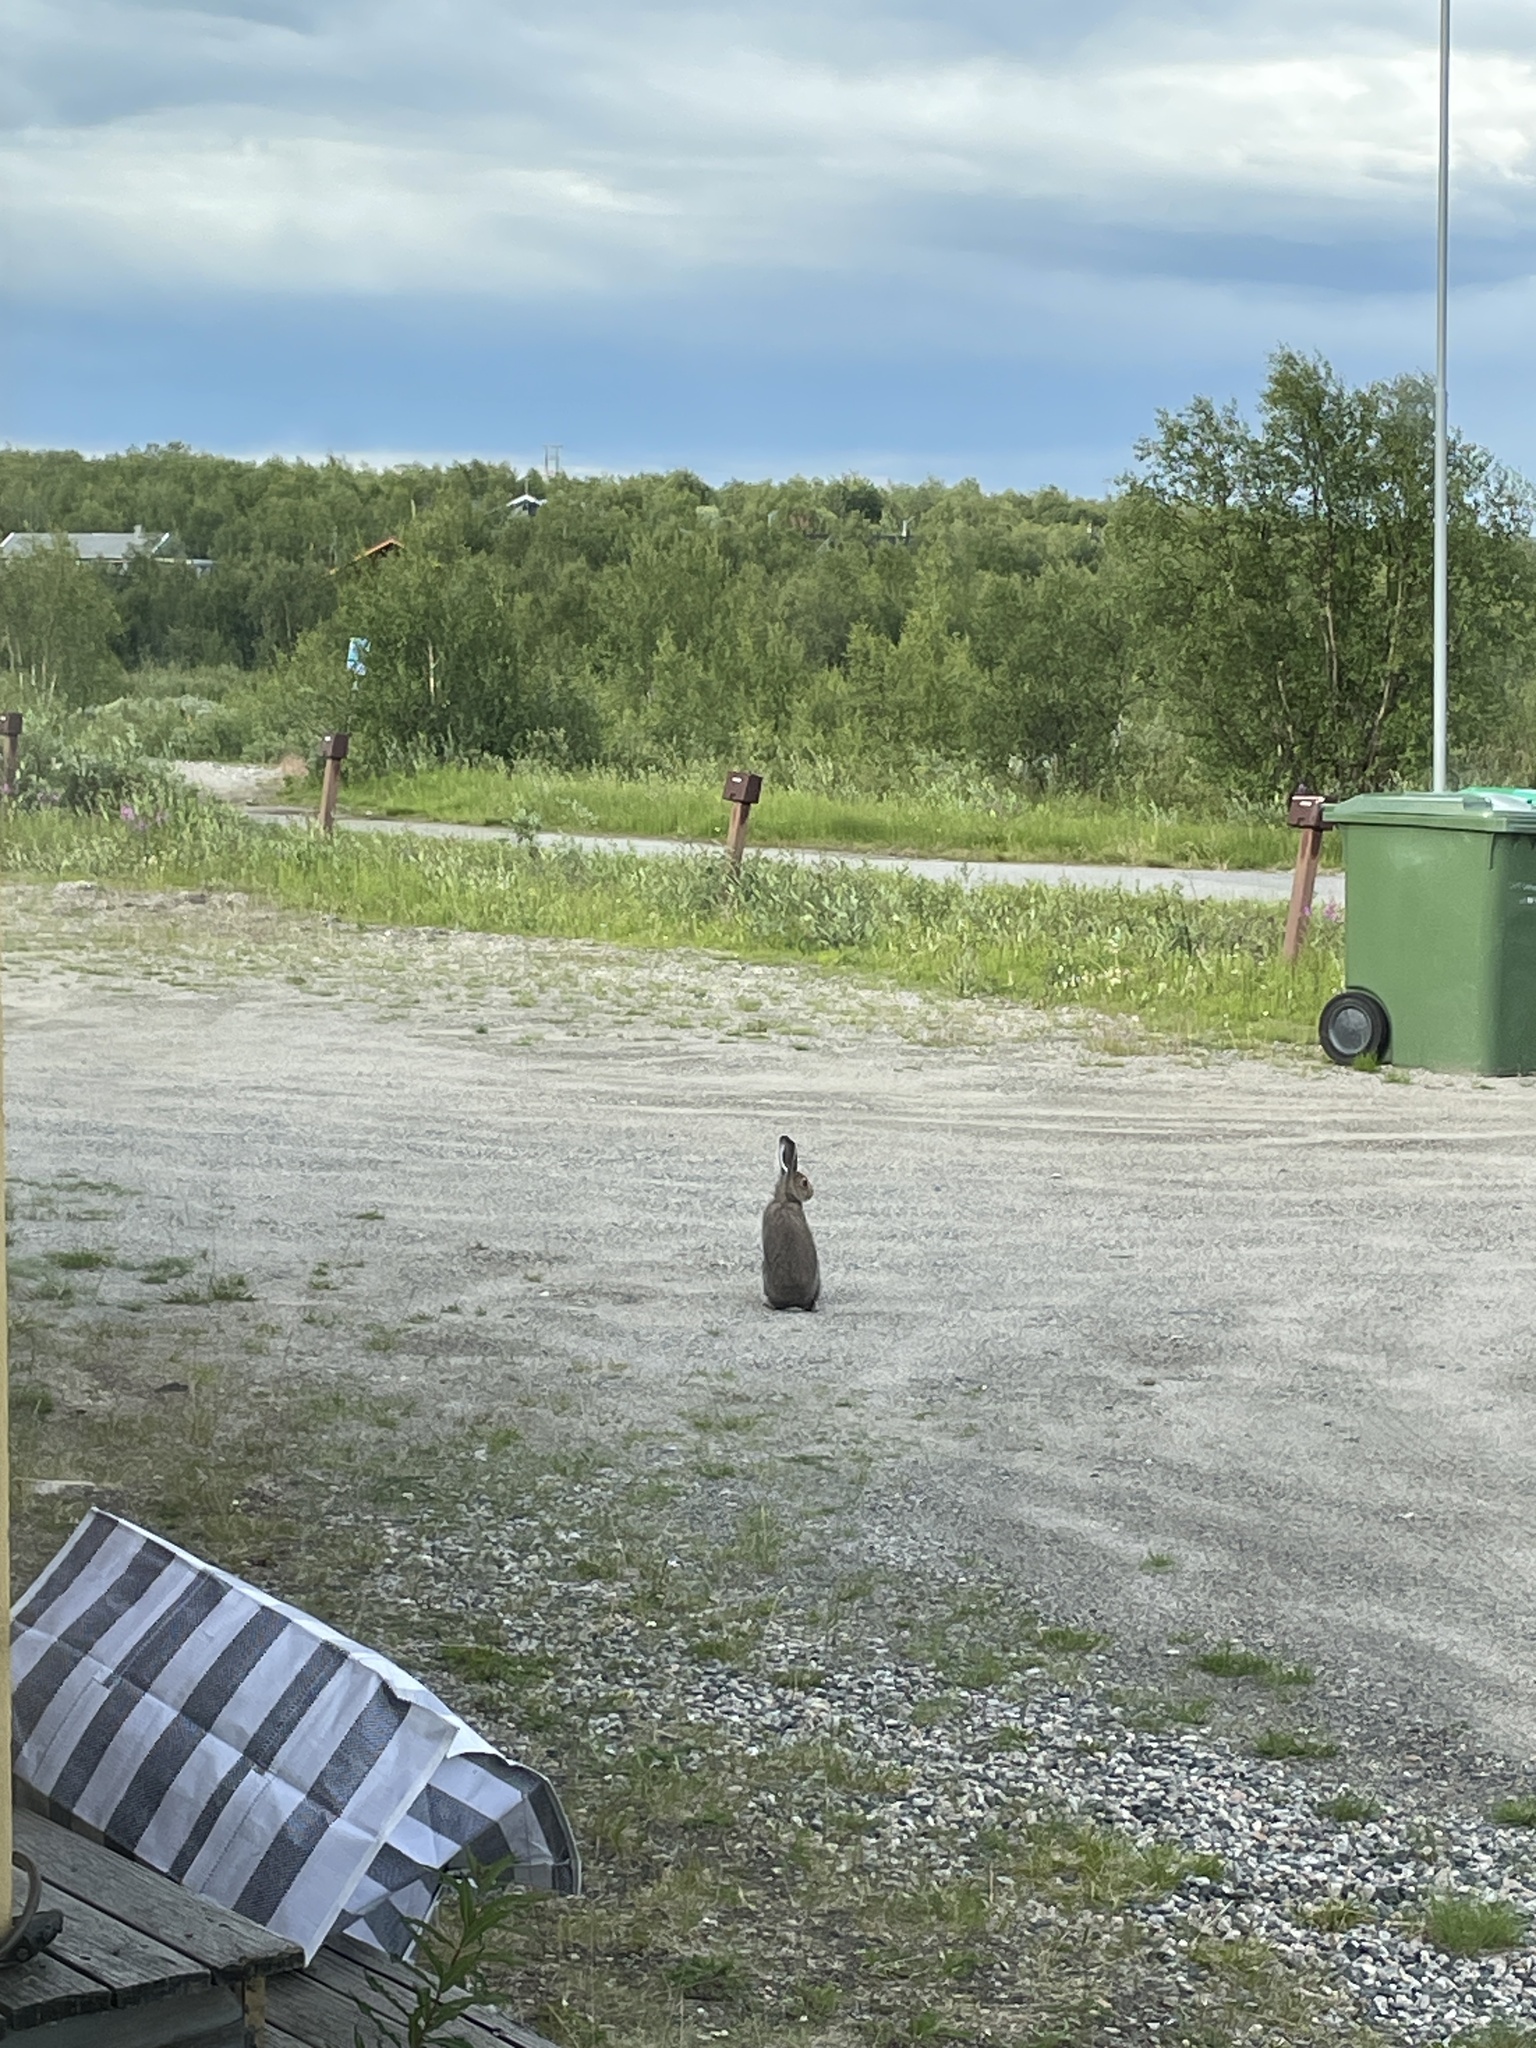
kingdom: Animalia
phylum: Chordata
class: Mammalia
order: Lagomorpha
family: Leporidae
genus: Lepus
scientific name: Lepus timidus
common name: Mountain hare
